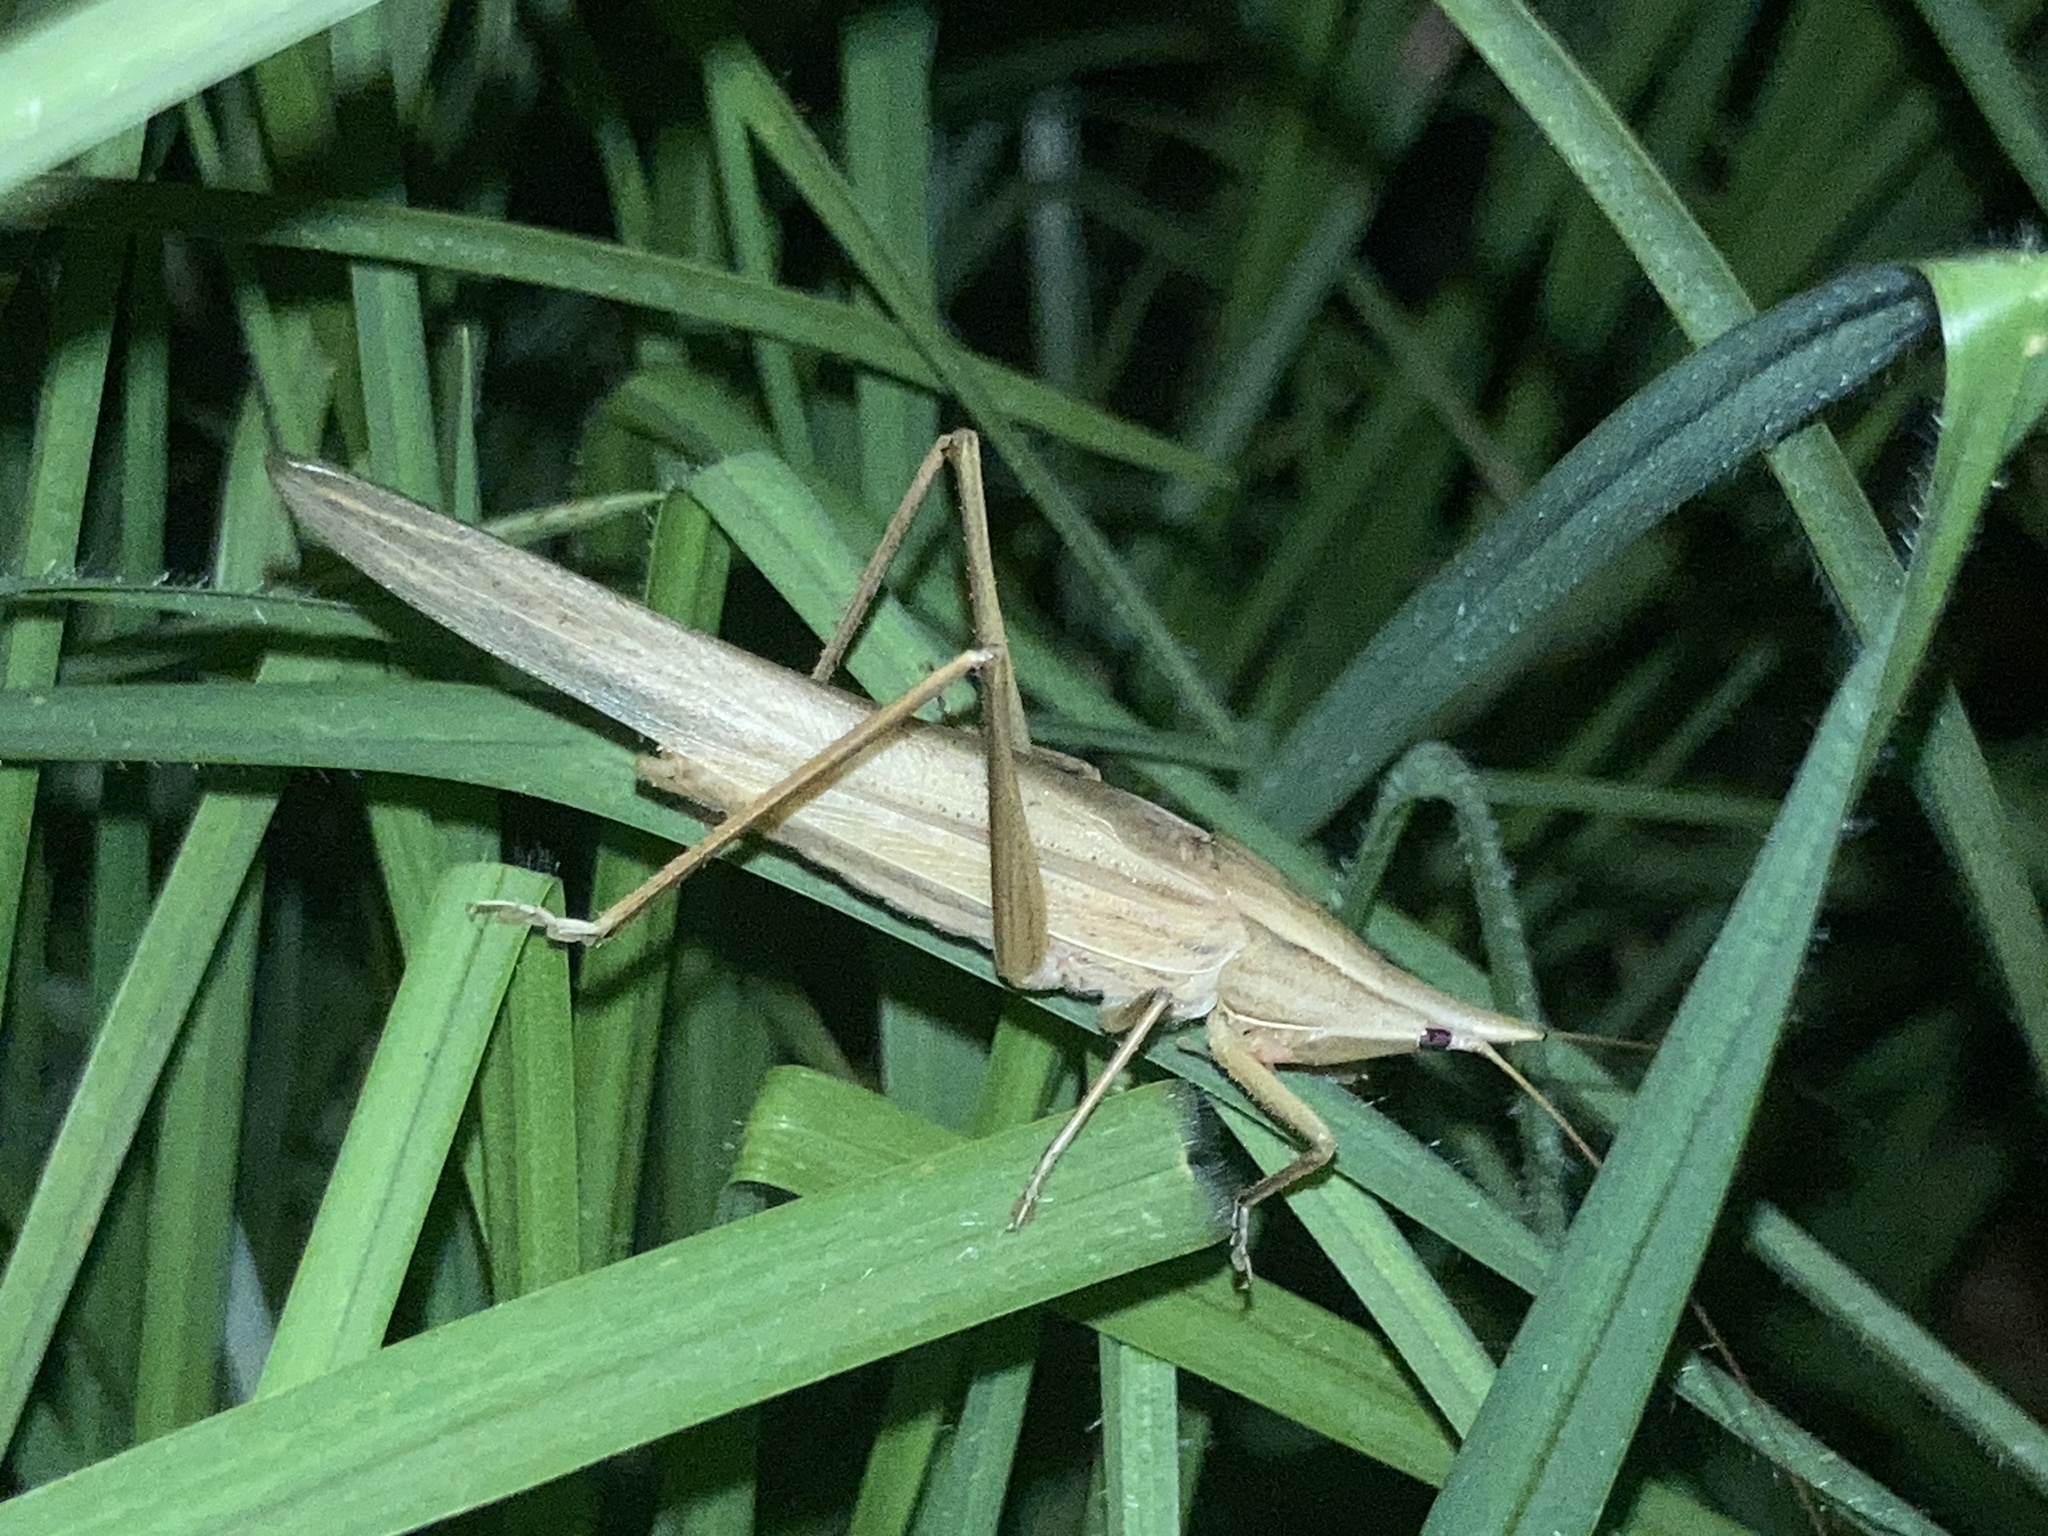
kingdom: Animalia
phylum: Arthropoda
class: Insecta
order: Orthoptera
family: Tettigoniidae
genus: Pseudorhynchus
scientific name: Pseudorhynchus lessonii
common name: Lesson's mimicking snout nose
